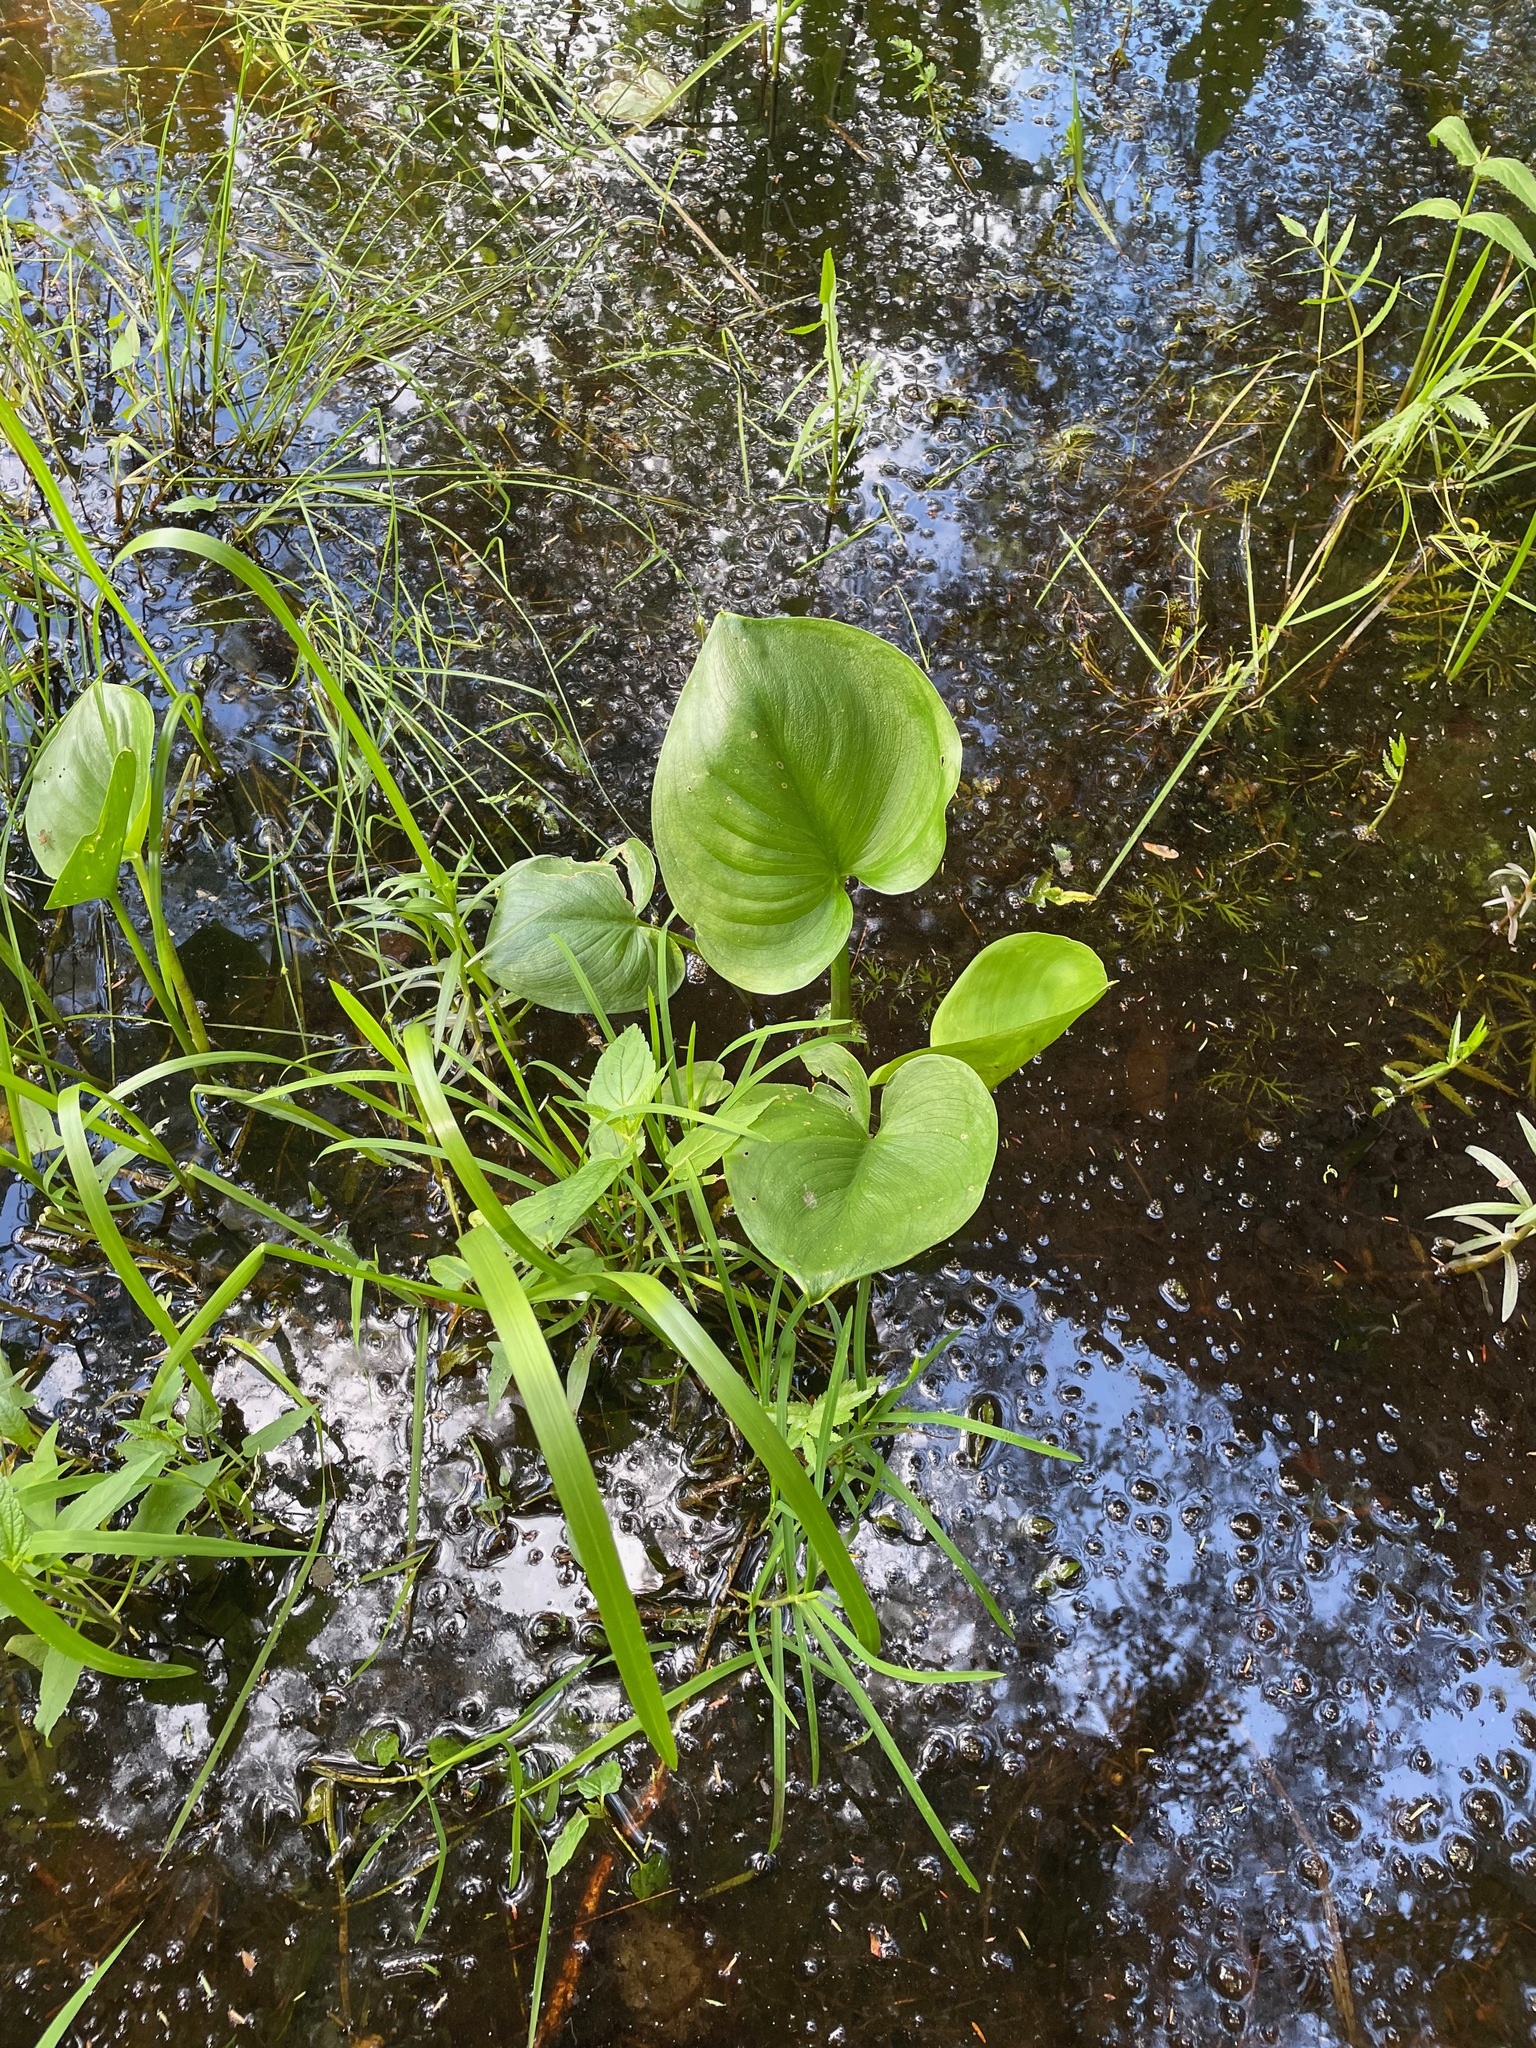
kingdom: Plantae
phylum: Tracheophyta
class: Liliopsida
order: Alismatales
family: Araceae
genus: Calla
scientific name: Calla palustris
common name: Bog arum
